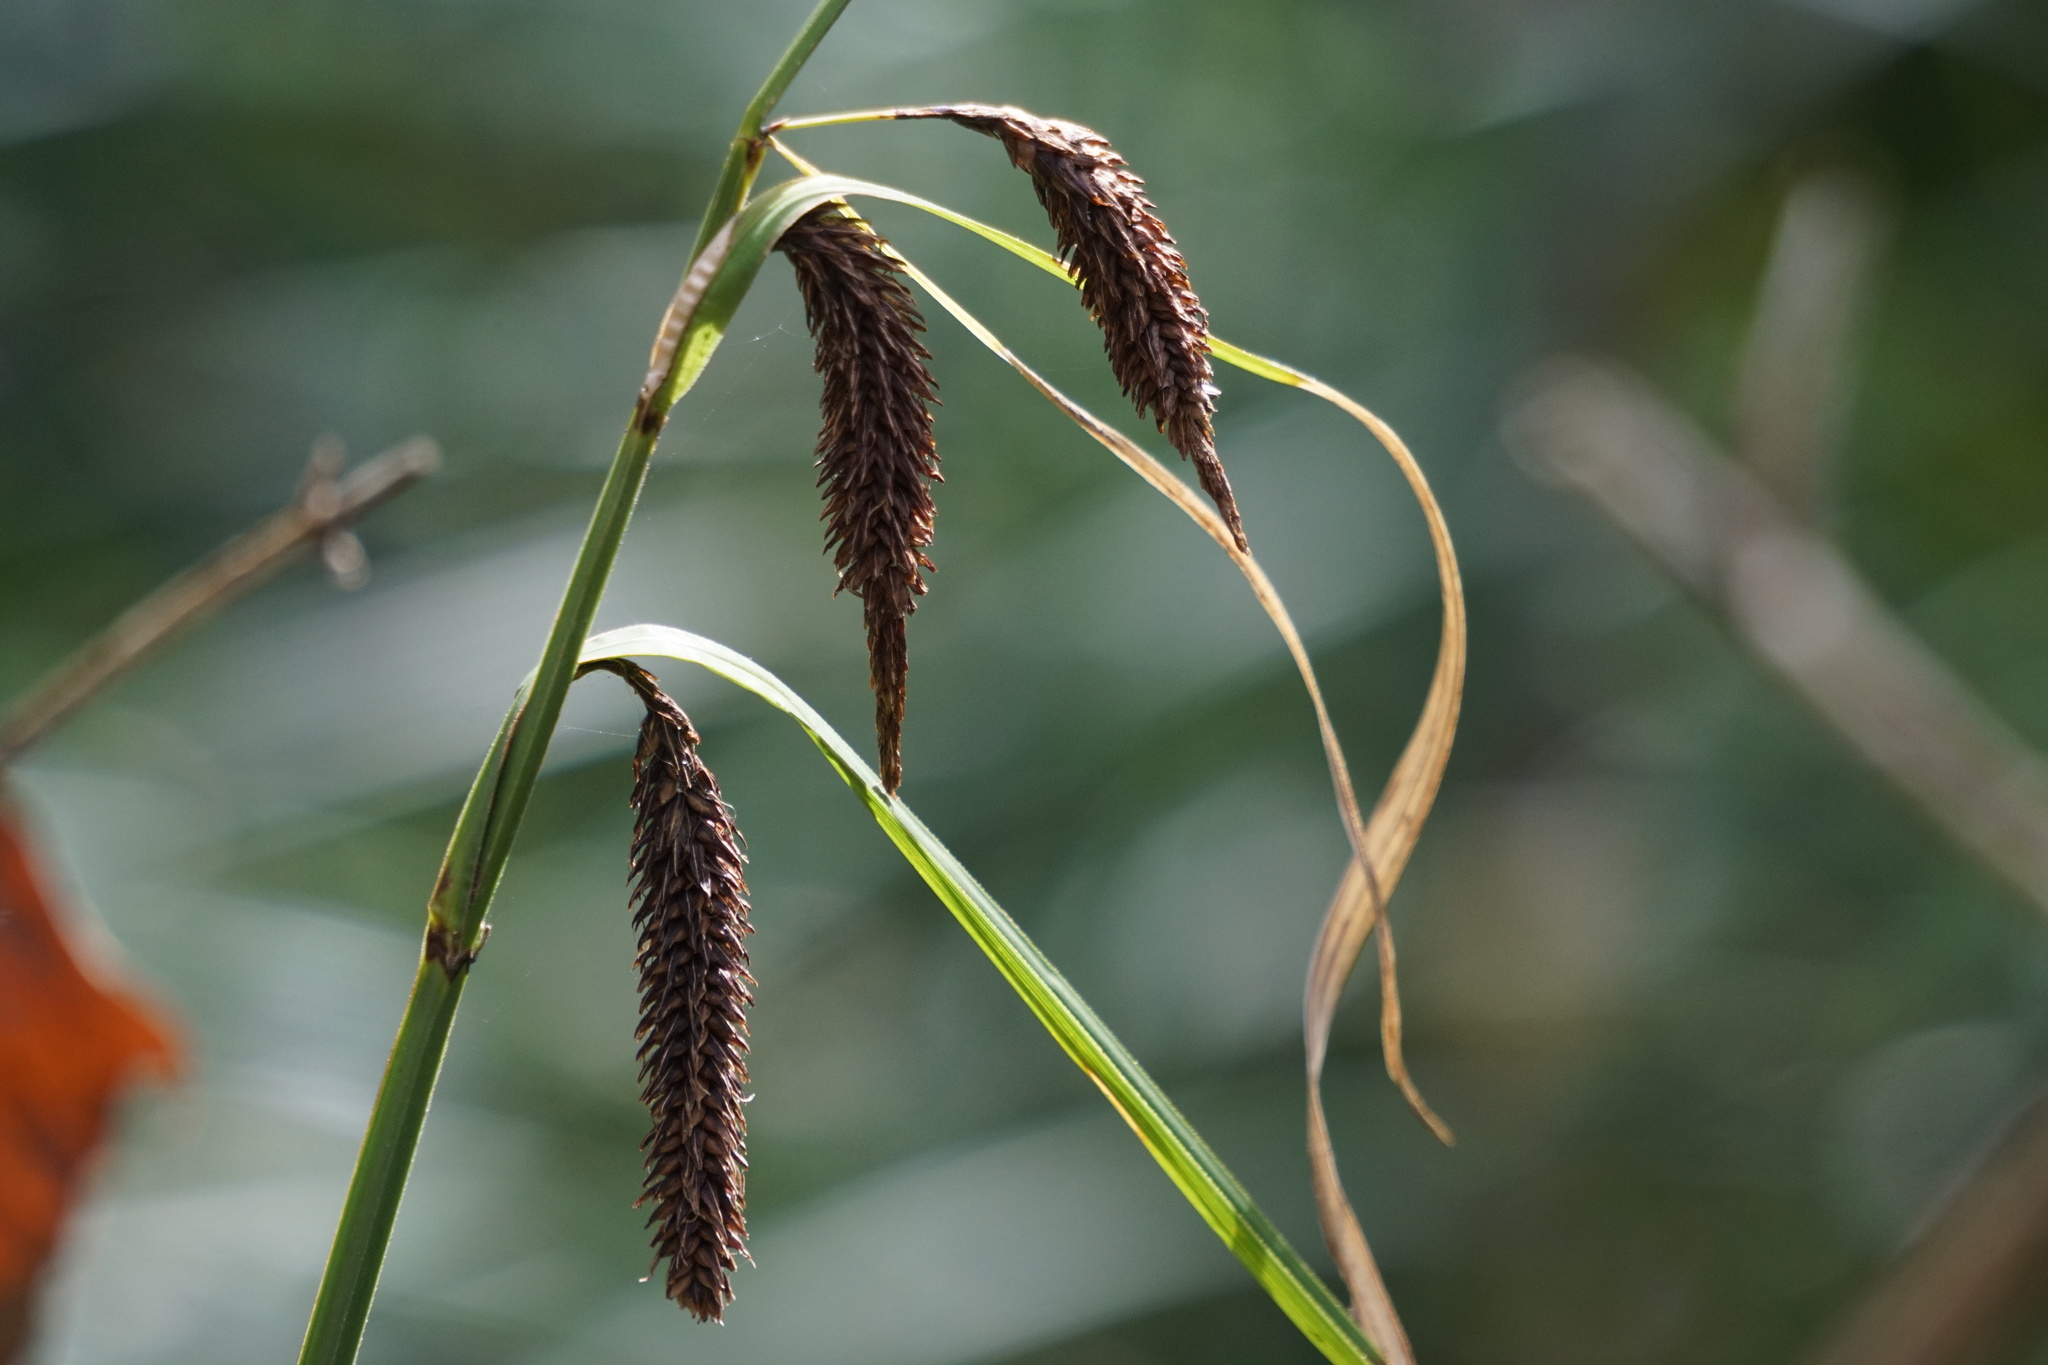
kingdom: Plantae
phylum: Tracheophyta
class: Liliopsida
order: Poales
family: Cyperaceae
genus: Carex
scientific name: Carex obnupta
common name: Slough sedge
